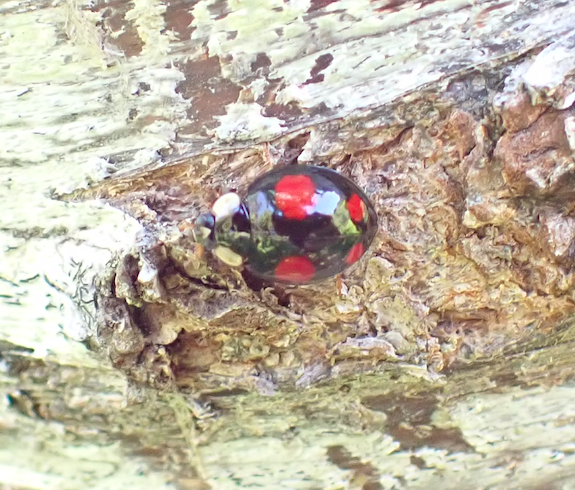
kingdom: Animalia
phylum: Arthropoda
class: Insecta
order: Coleoptera
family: Coccinellidae
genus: Harmonia
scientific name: Harmonia axyridis
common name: Harlequin ladybird
